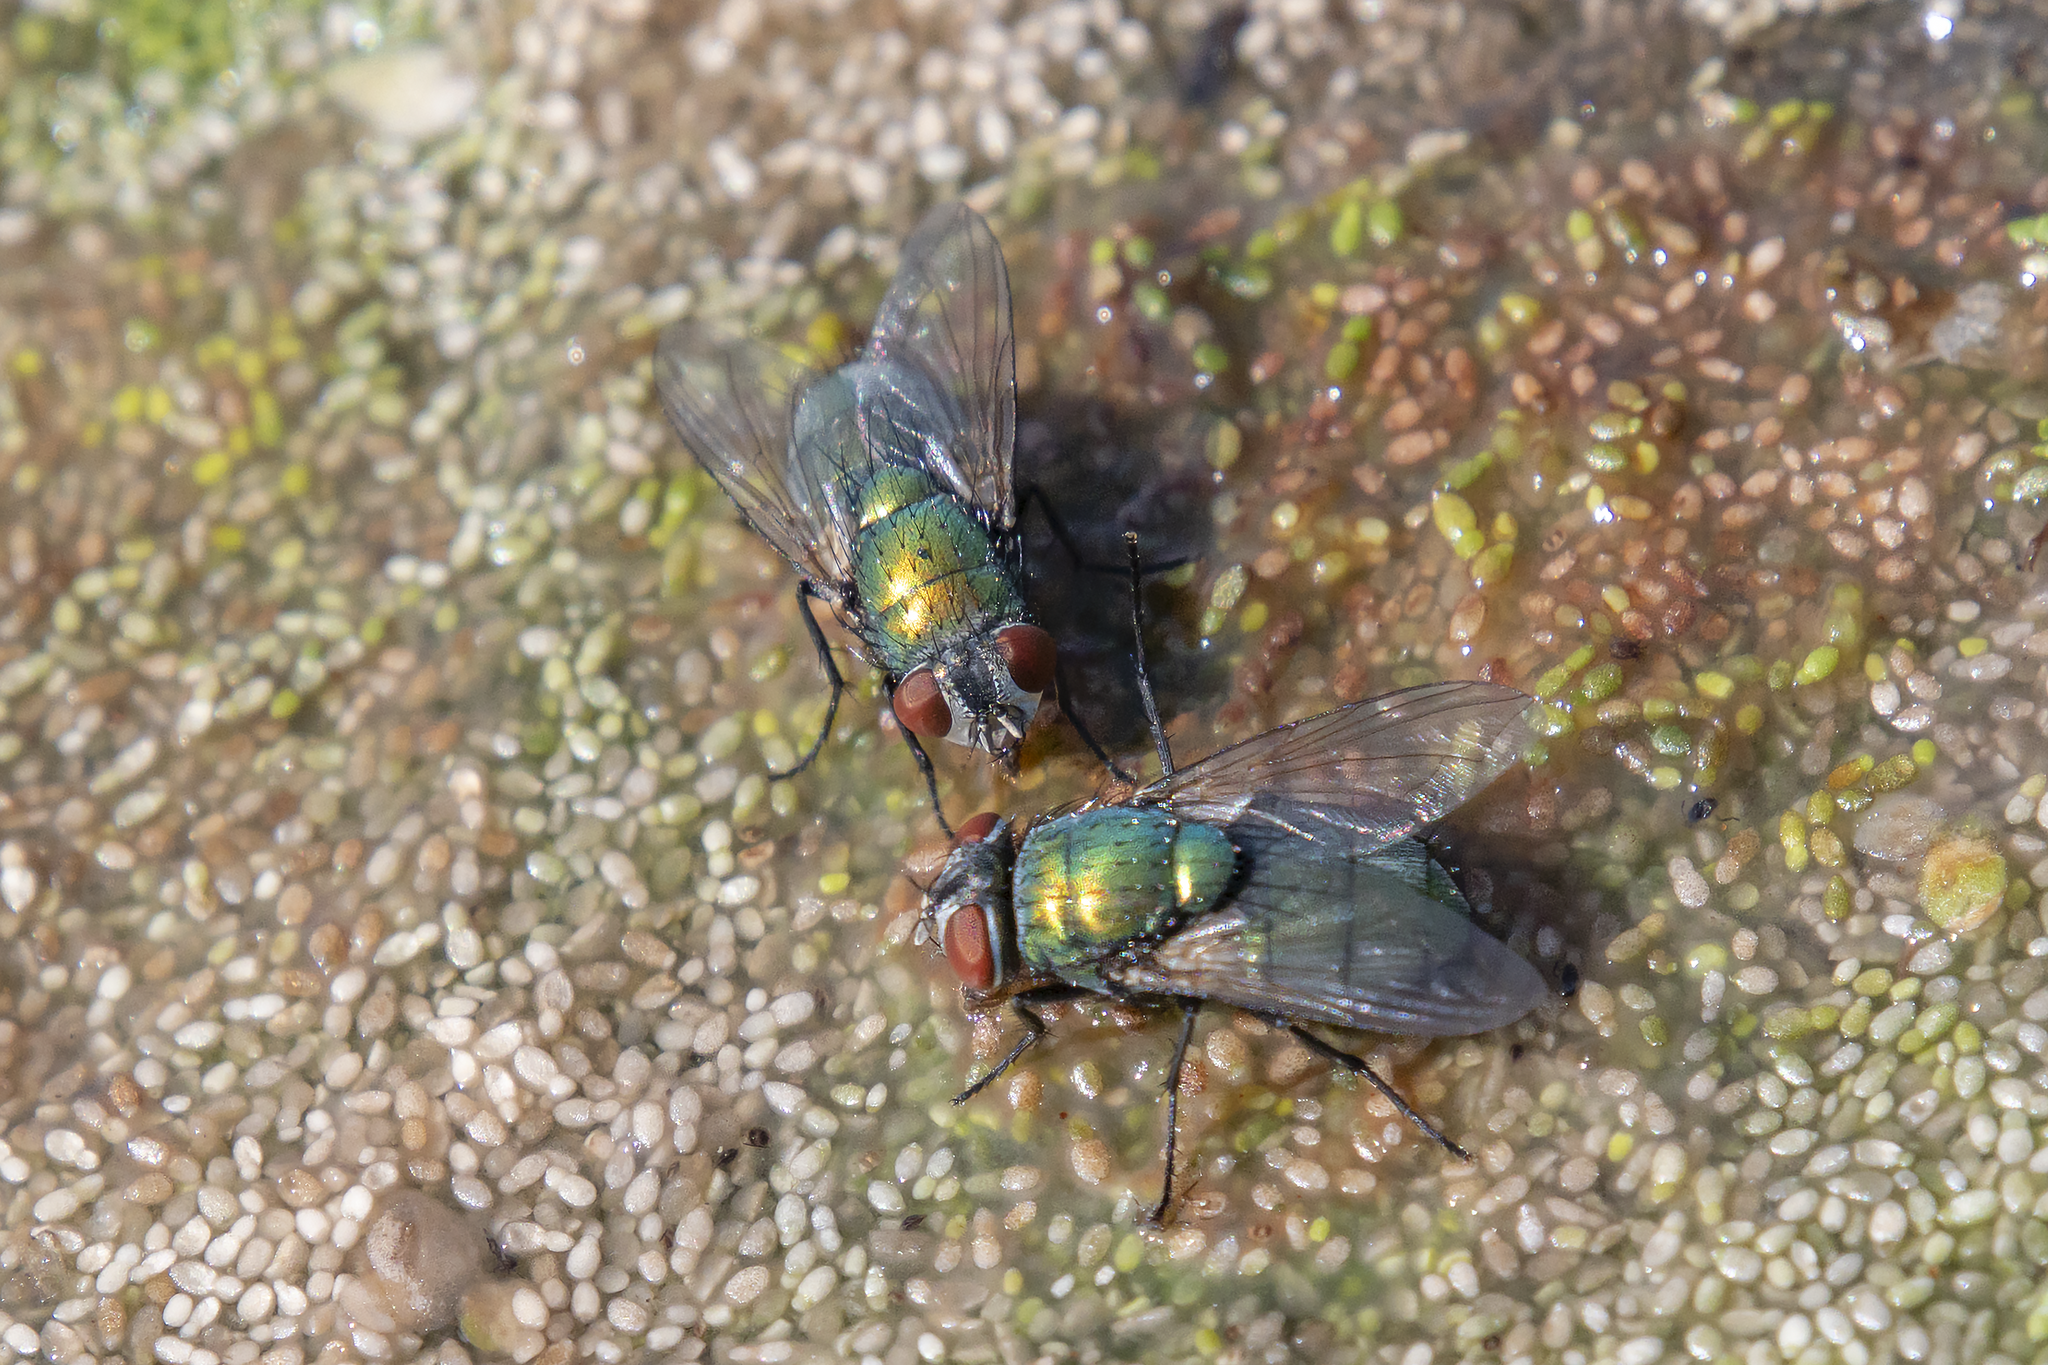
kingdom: Animalia
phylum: Arthropoda
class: Insecta
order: Diptera
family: Calliphoridae
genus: Lucilia
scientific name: Lucilia sericata
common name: Blow fly
